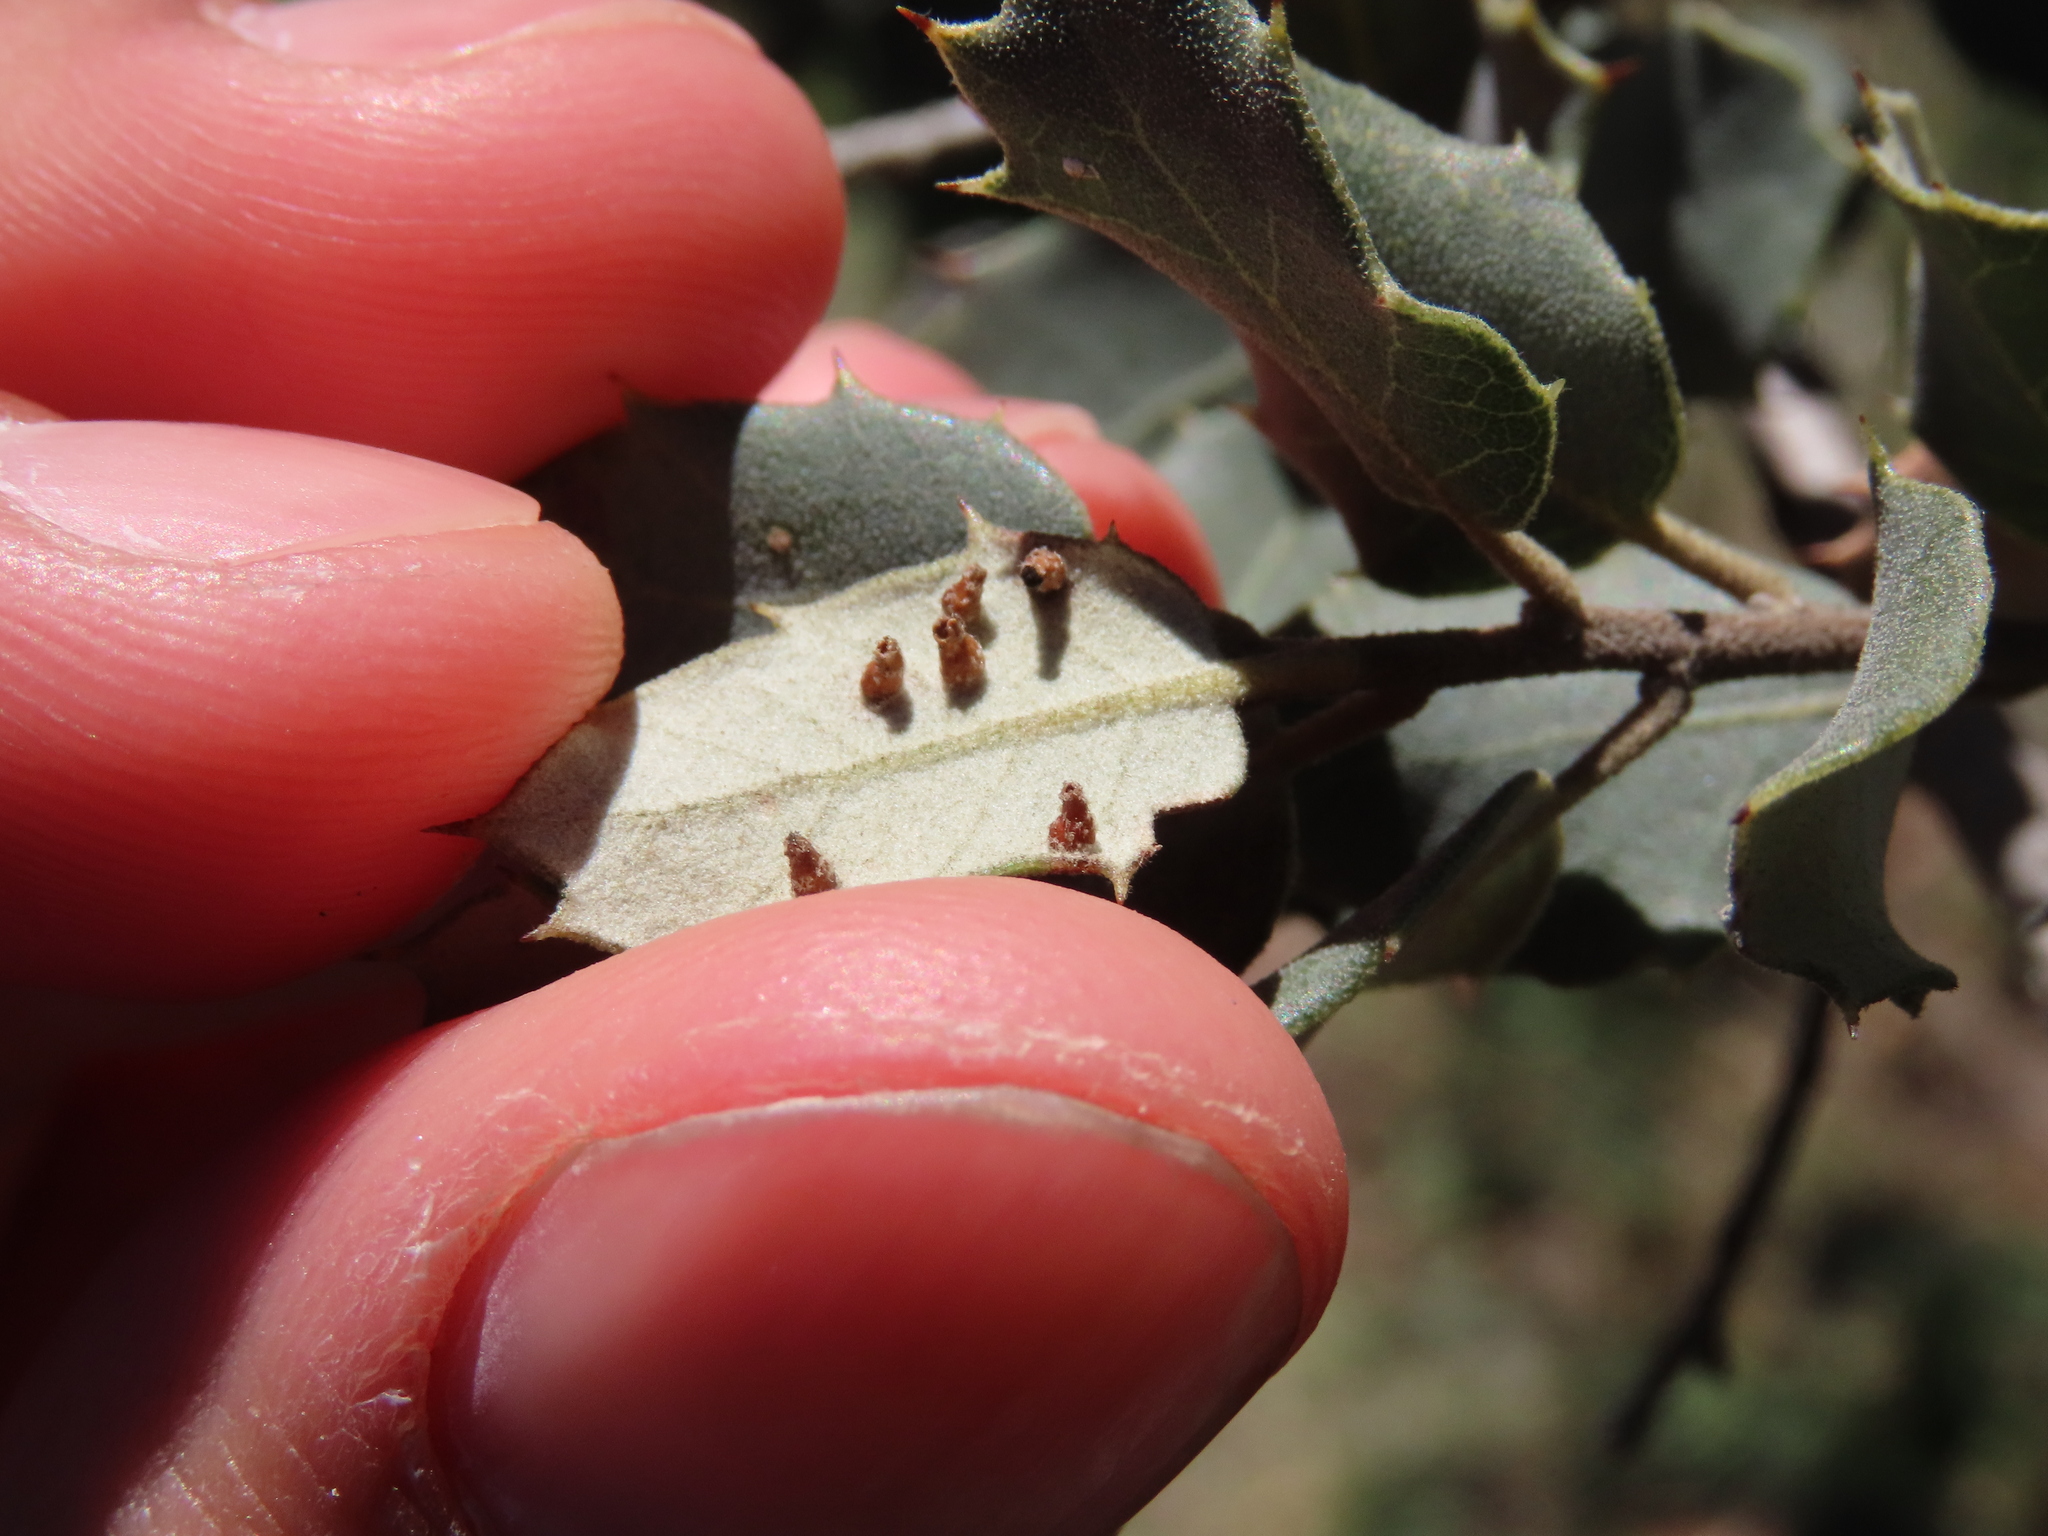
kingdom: Animalia
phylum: Arthropoda
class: Insecta
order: Diptera
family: Cecidomyiidae
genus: Contarinia
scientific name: Contarinia ilicis
